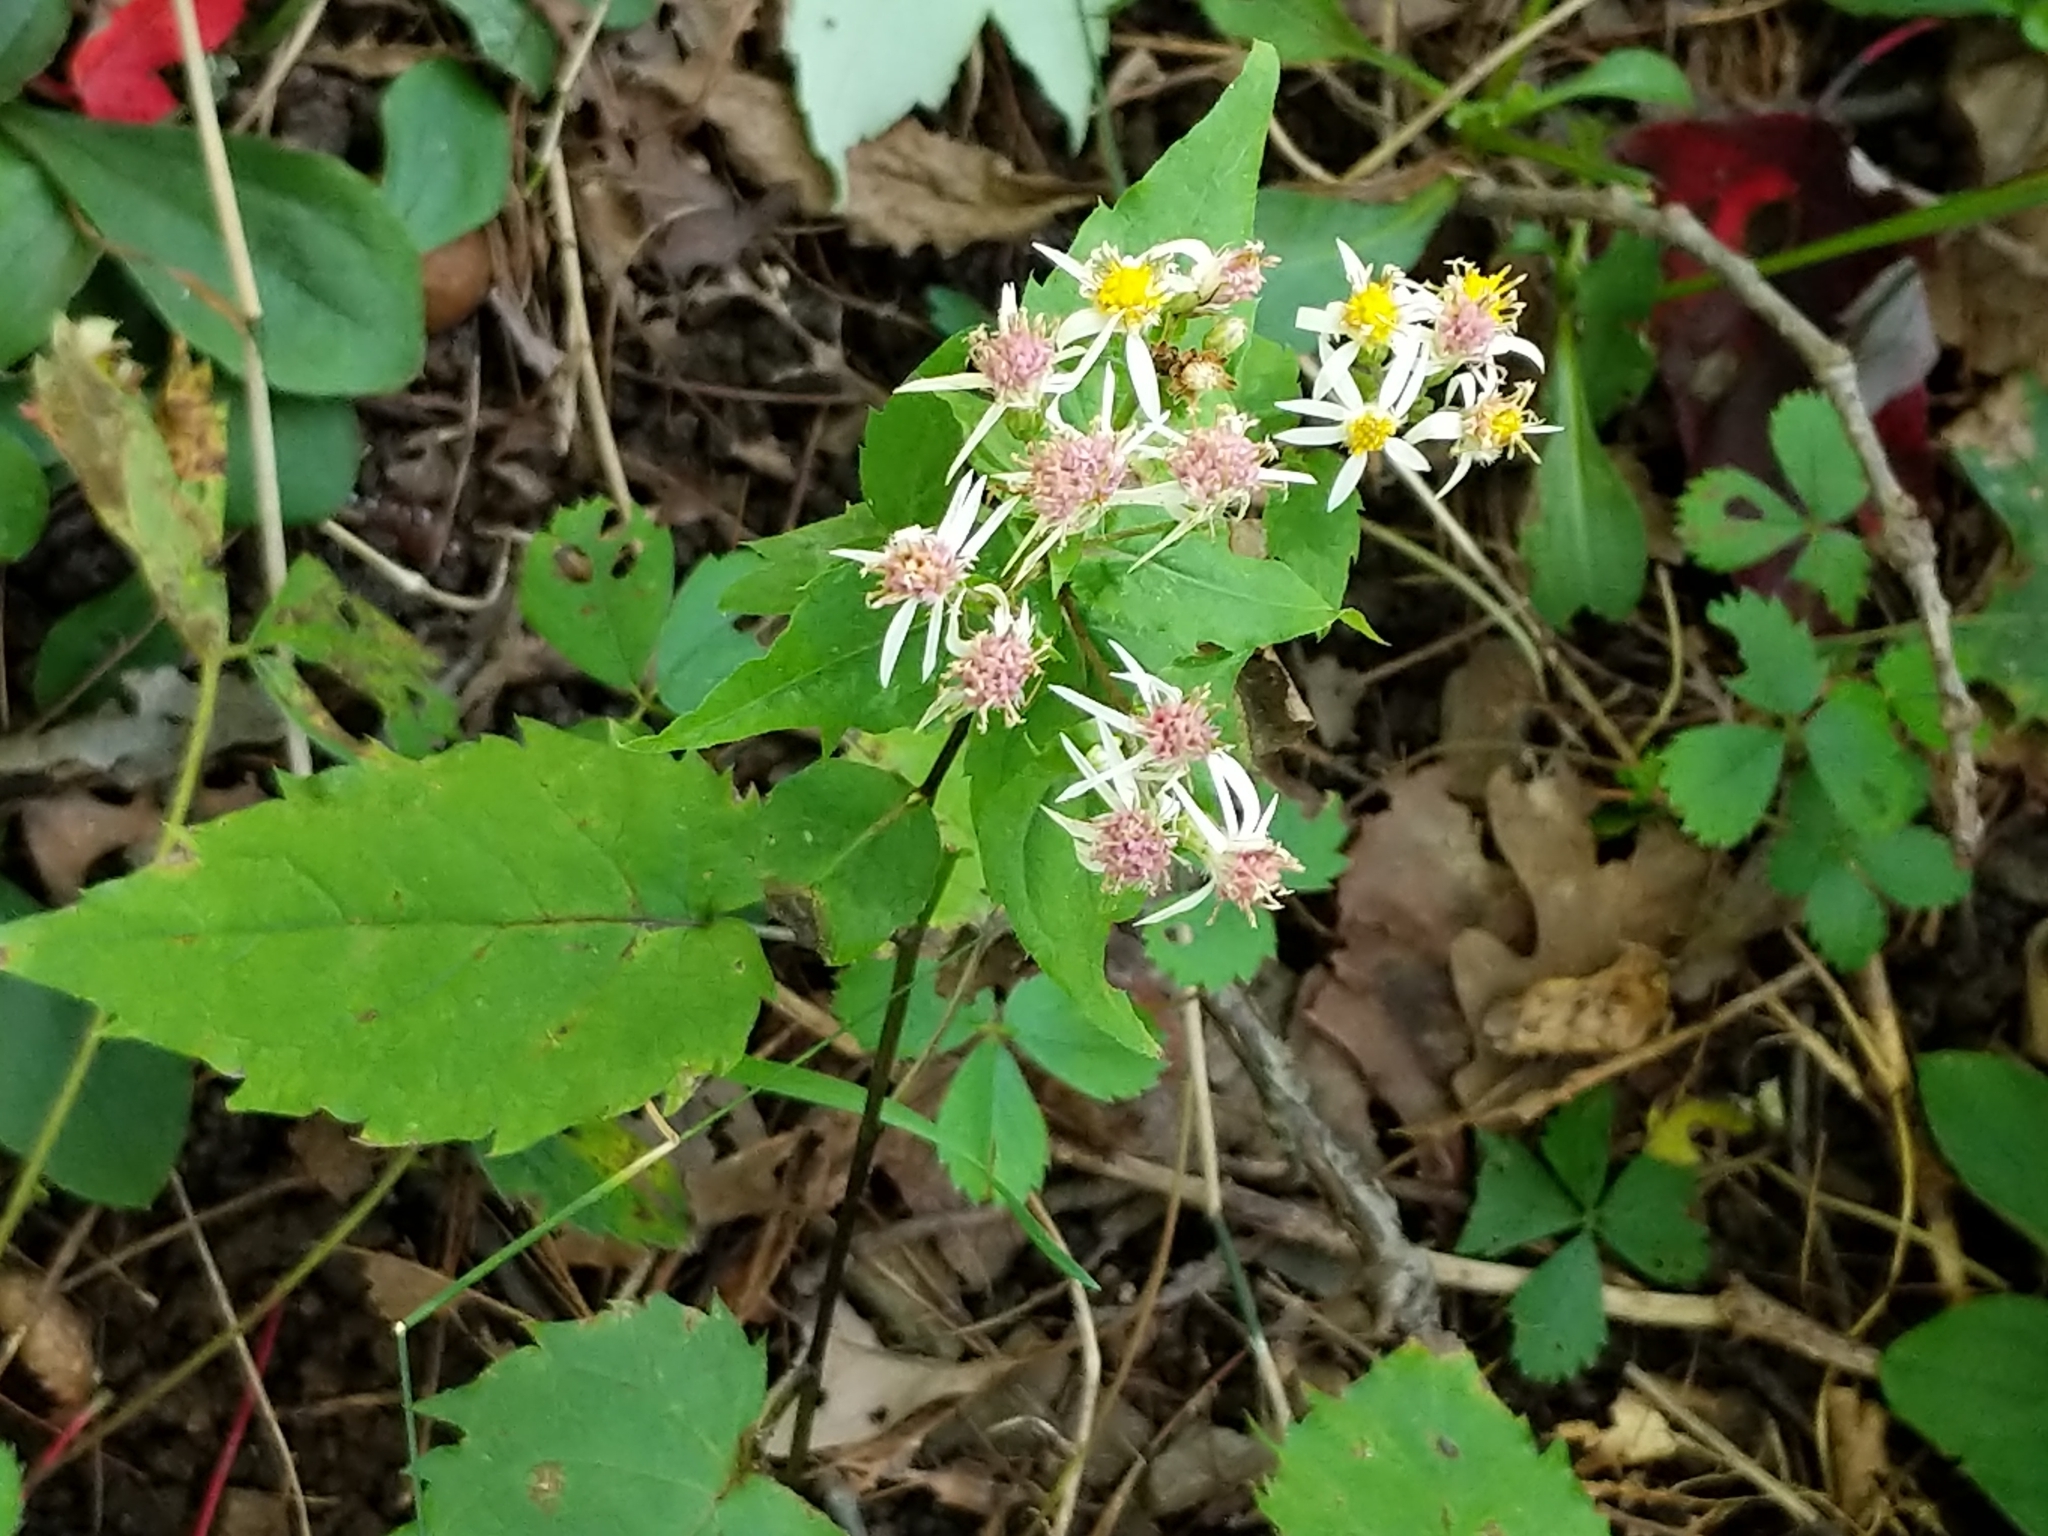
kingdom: Plantae
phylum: Tracheophyta
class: Magnoliopsida
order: Asterales
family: Asteraceae
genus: Eurybia
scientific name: Eurybia divaricata
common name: White wood aster
